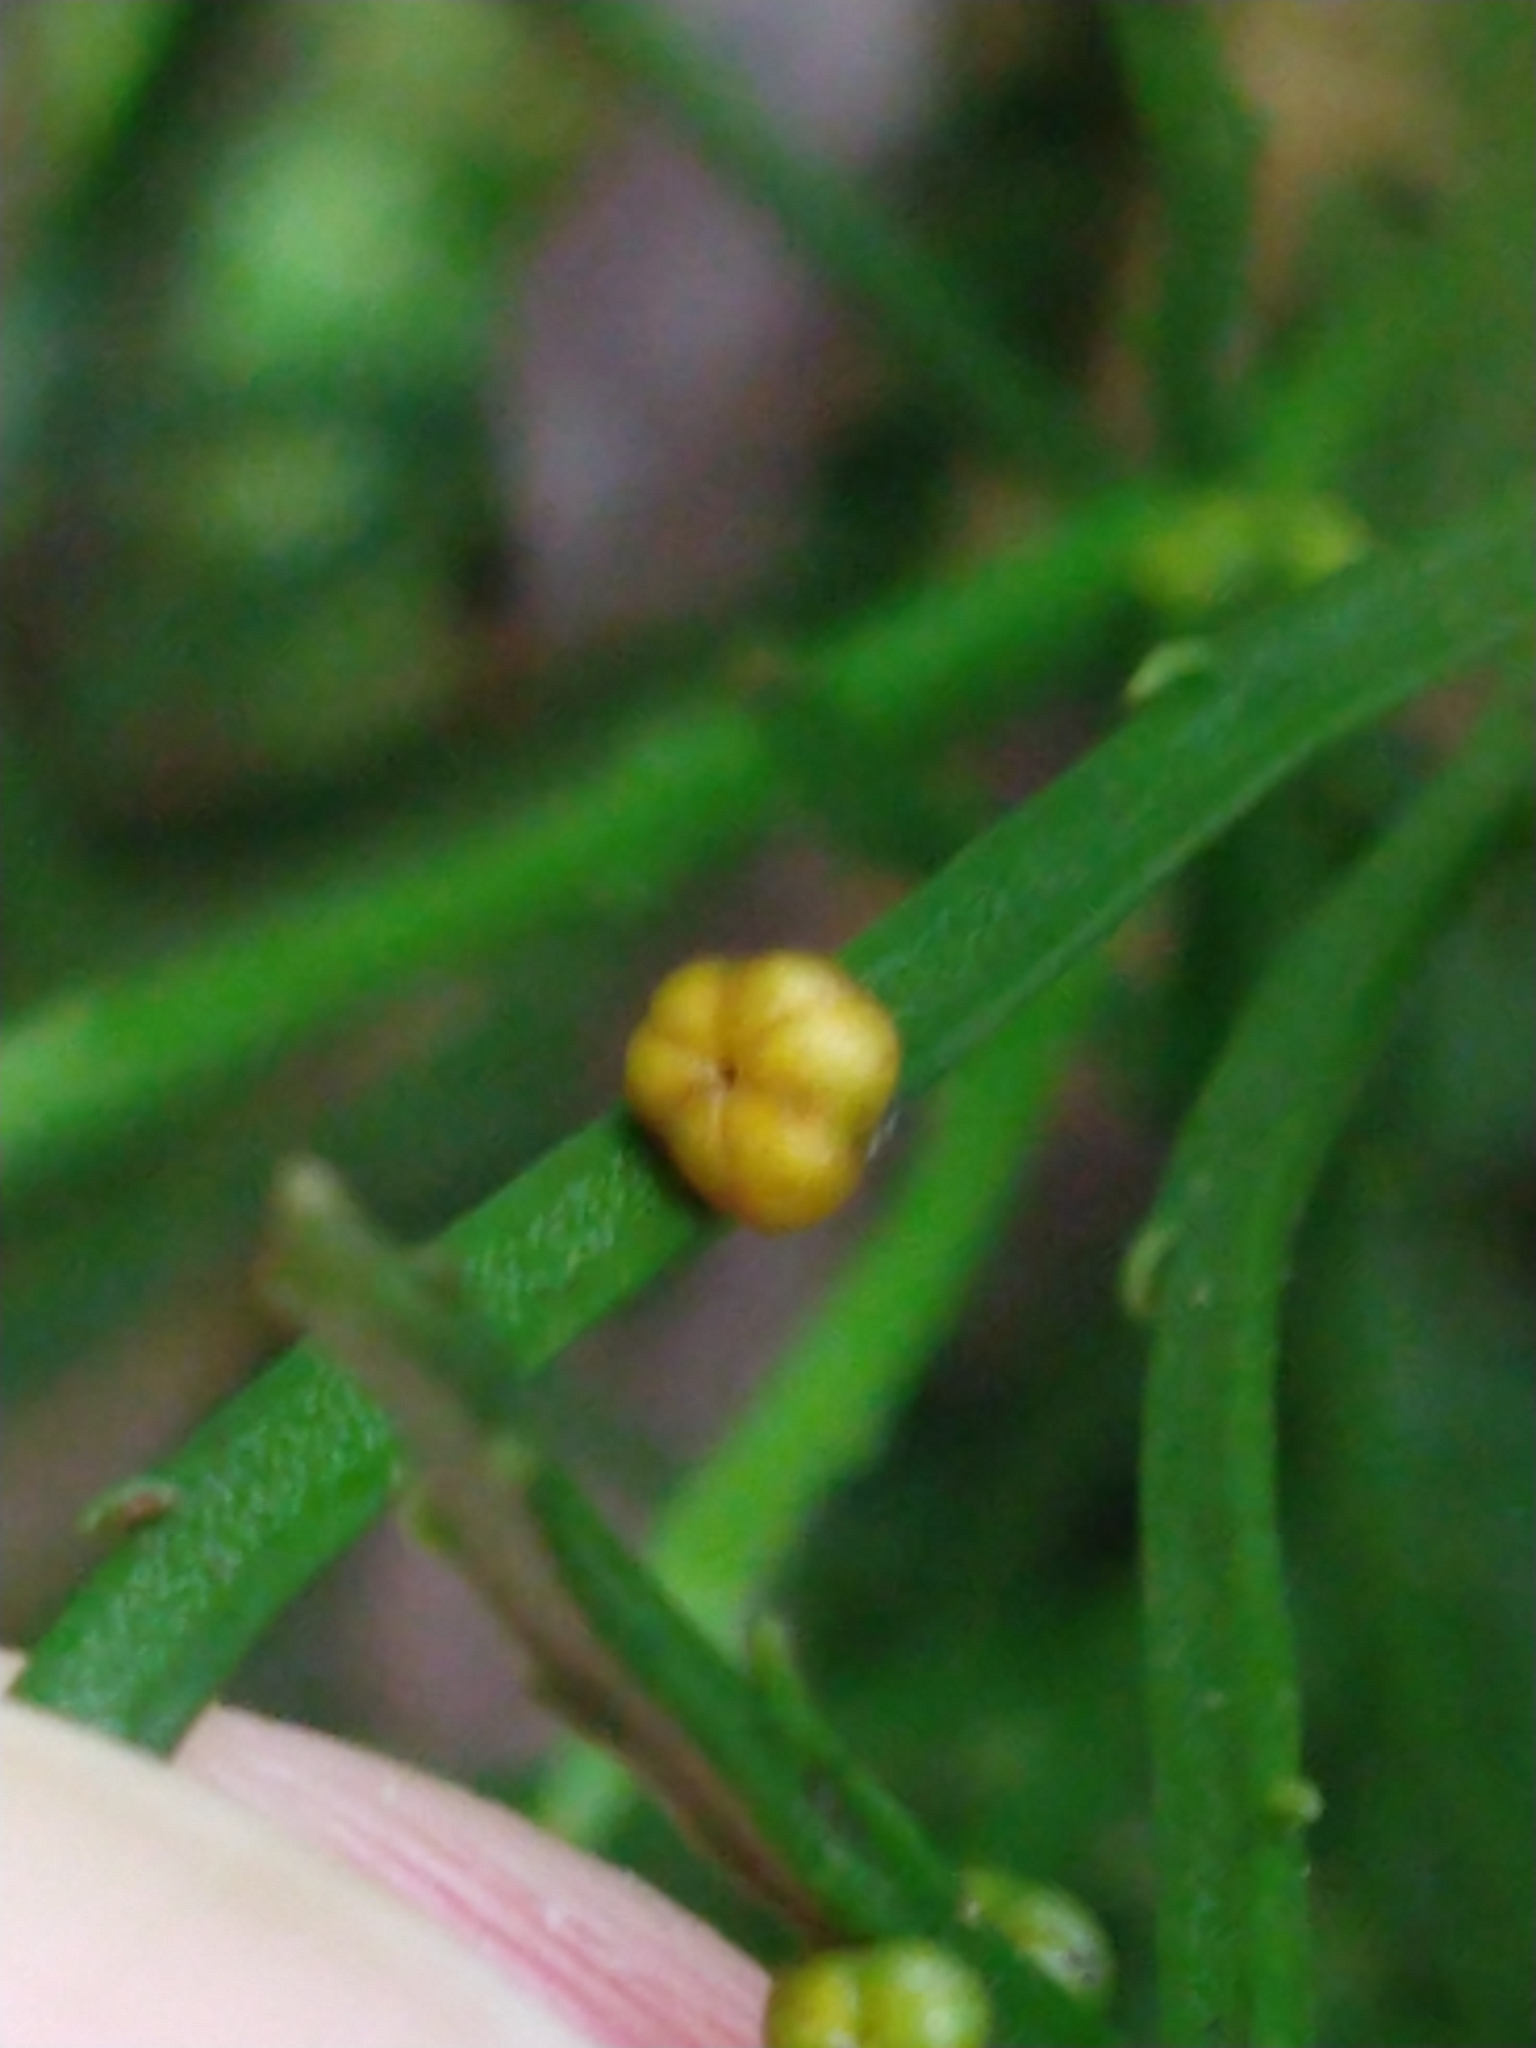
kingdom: Plantae
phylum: Tracheophyta
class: Polypodiopsida
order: Psilotales
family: Psilotaceae
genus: Psilotum
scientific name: Psilotum nudum
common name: Skeleton fork fern
